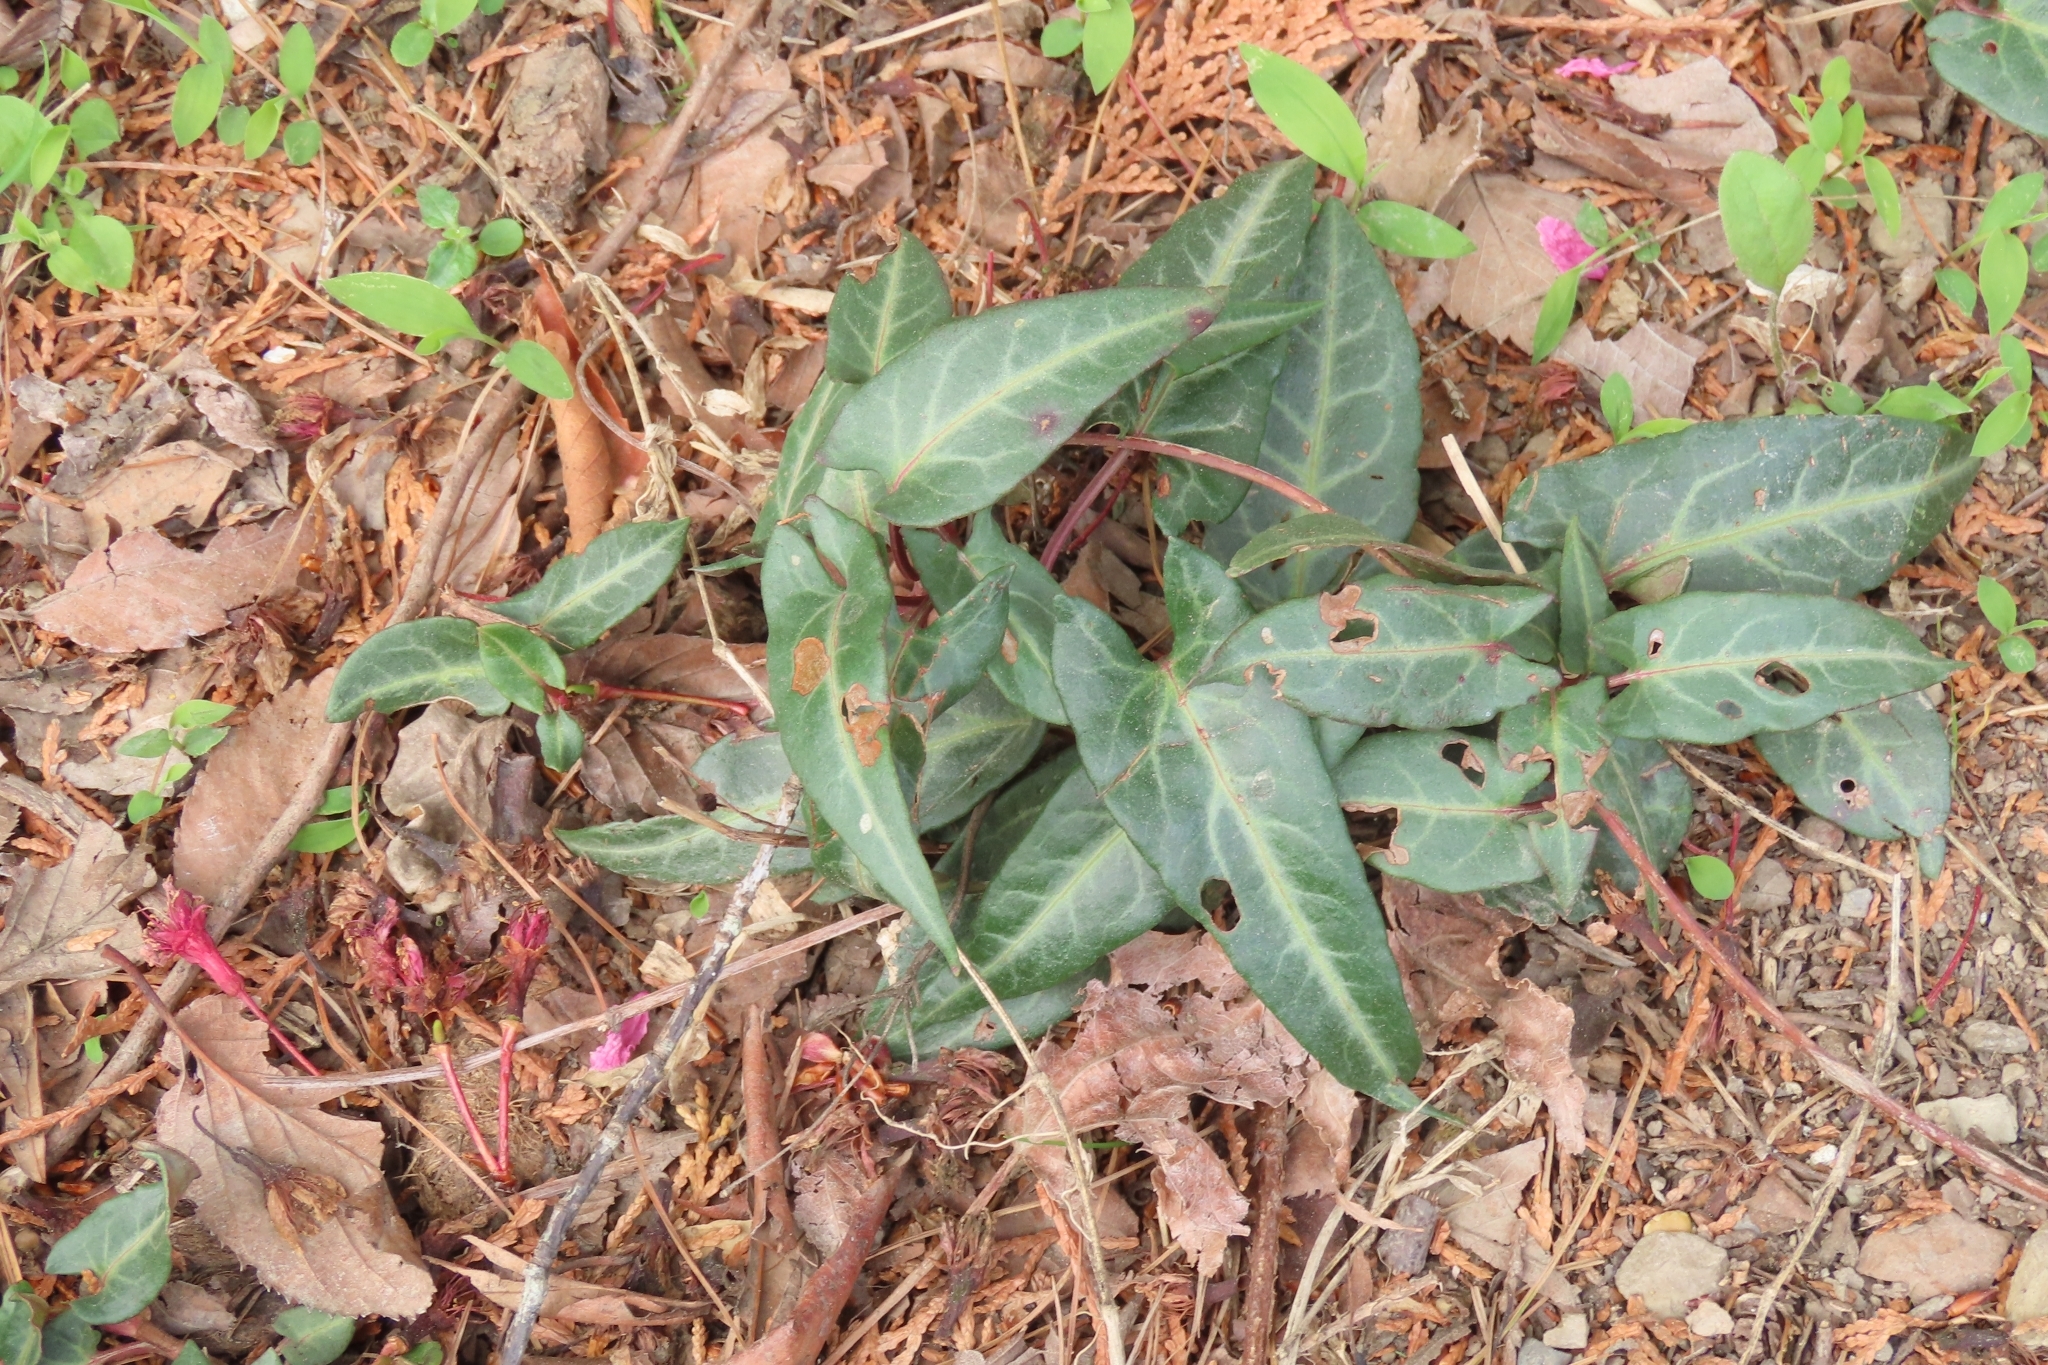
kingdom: Plantae
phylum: Tracheophyta
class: Magnoliopsida
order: Caryophyllales
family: Polygonaceae
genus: Reynoutria
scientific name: Reynoutria multiflora
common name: Chinese fleeceflower
